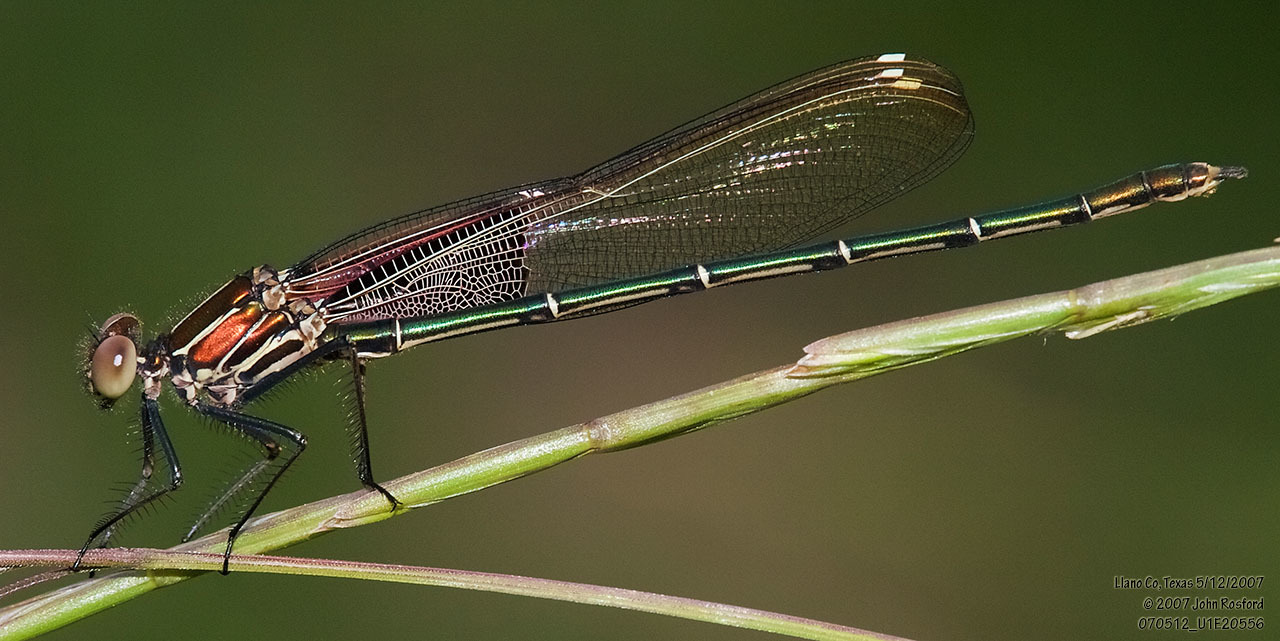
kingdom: Animalia
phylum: Arthropoda
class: Insecta
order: Odonata
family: Calopterygidae
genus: Hetaerina
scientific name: Hetaerina americana
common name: American rubyspot
